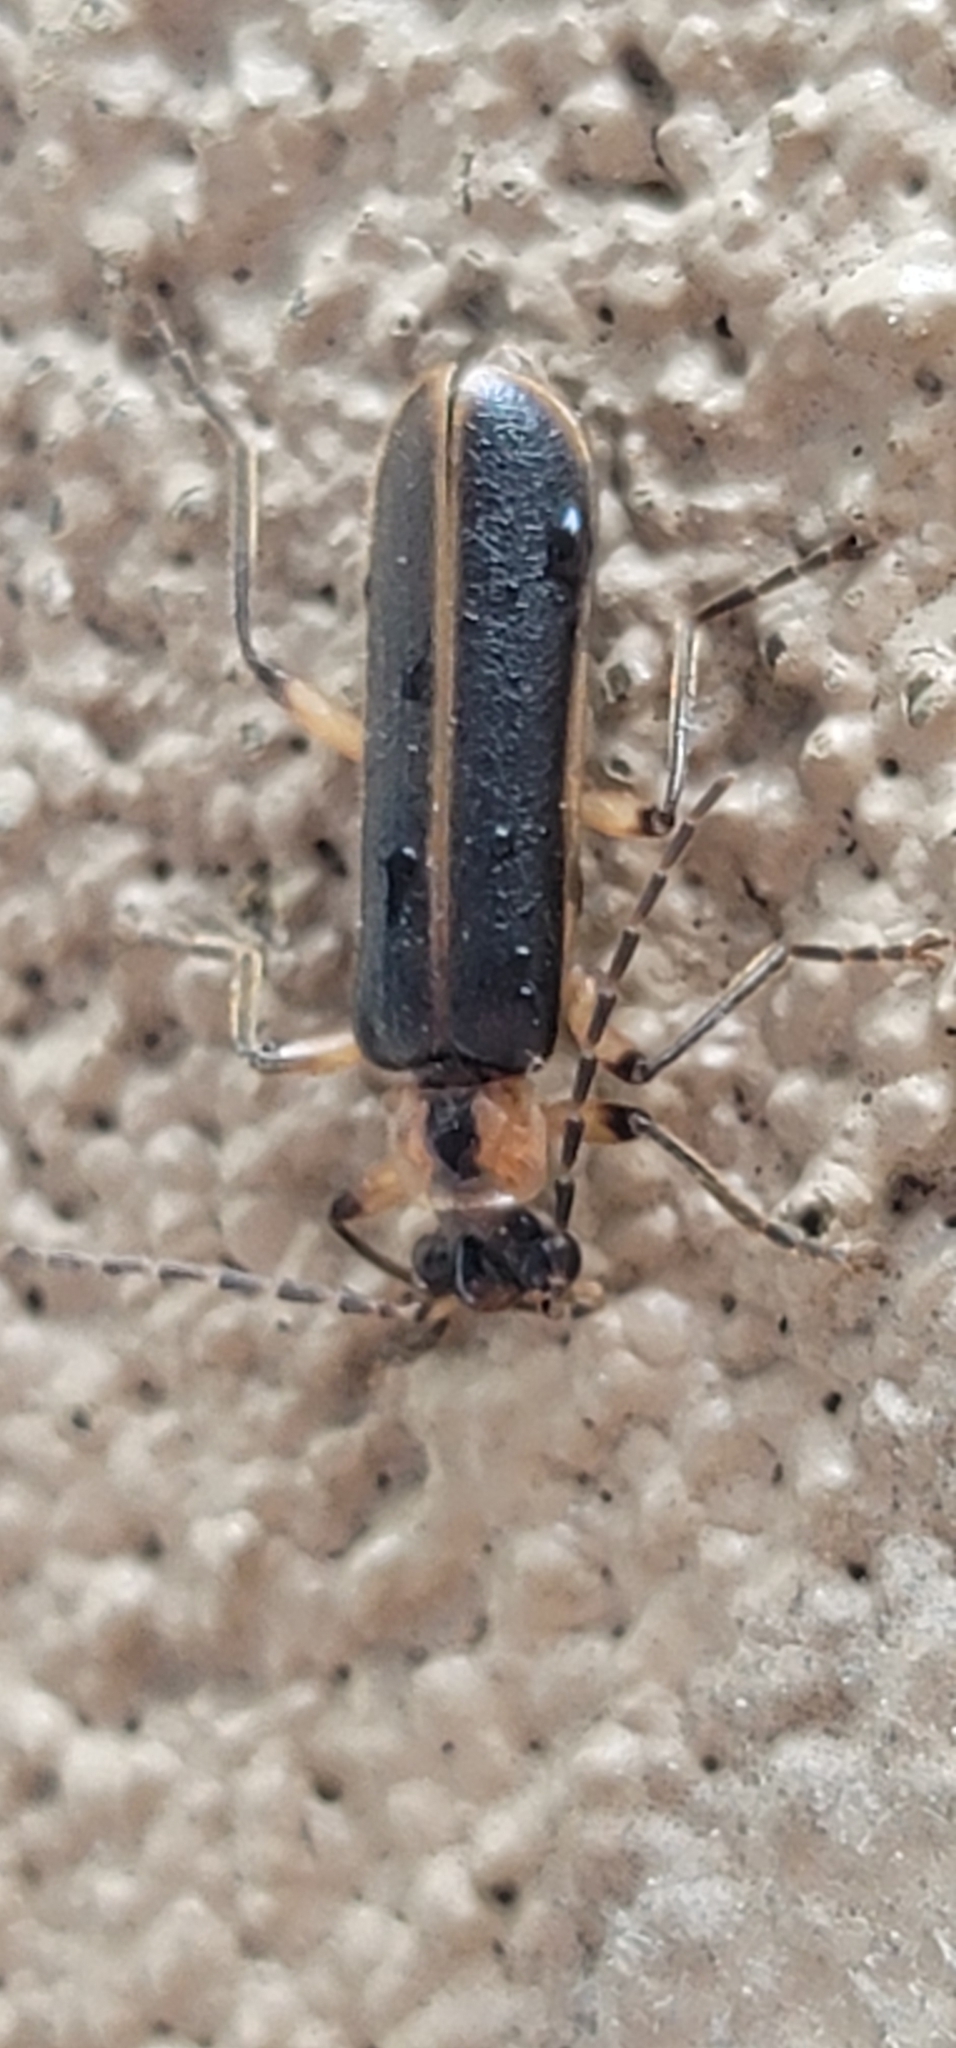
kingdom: Animalia
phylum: Arthropoda
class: Insecta
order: Coleoptera
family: Cantharidae
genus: Podabrus
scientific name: Podabrus basilaris
